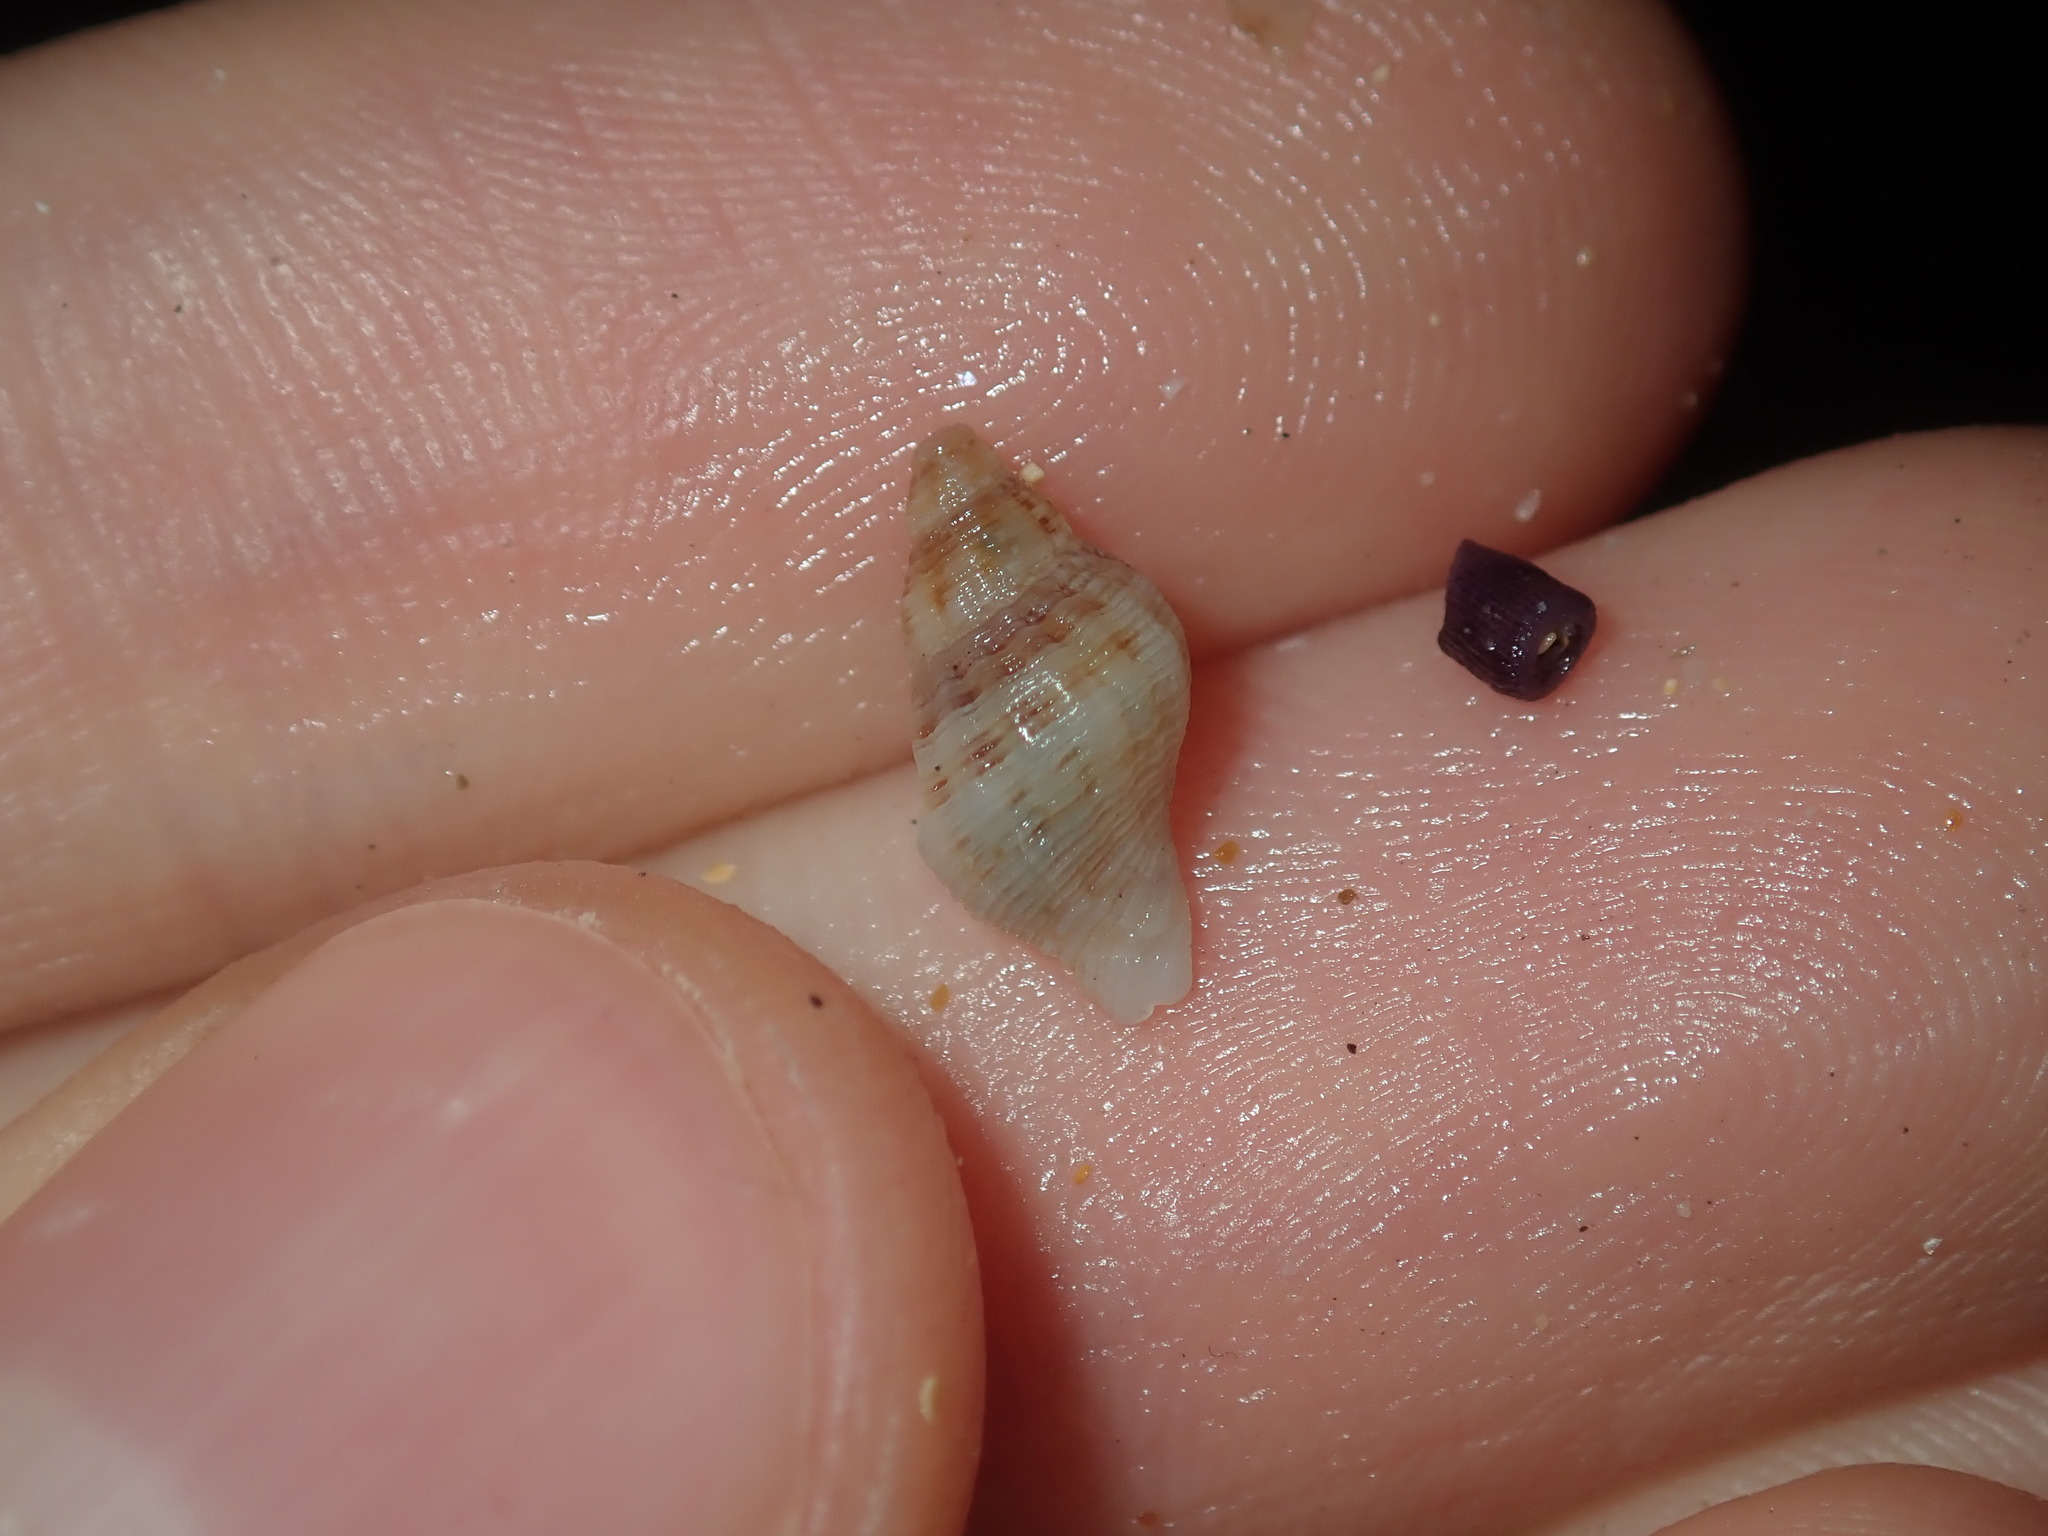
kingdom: Animalia
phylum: Mollusca
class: Gastropoda
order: Neogastropoda
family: Muricidae
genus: Agnewia
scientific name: Agnewia tritoniformis
